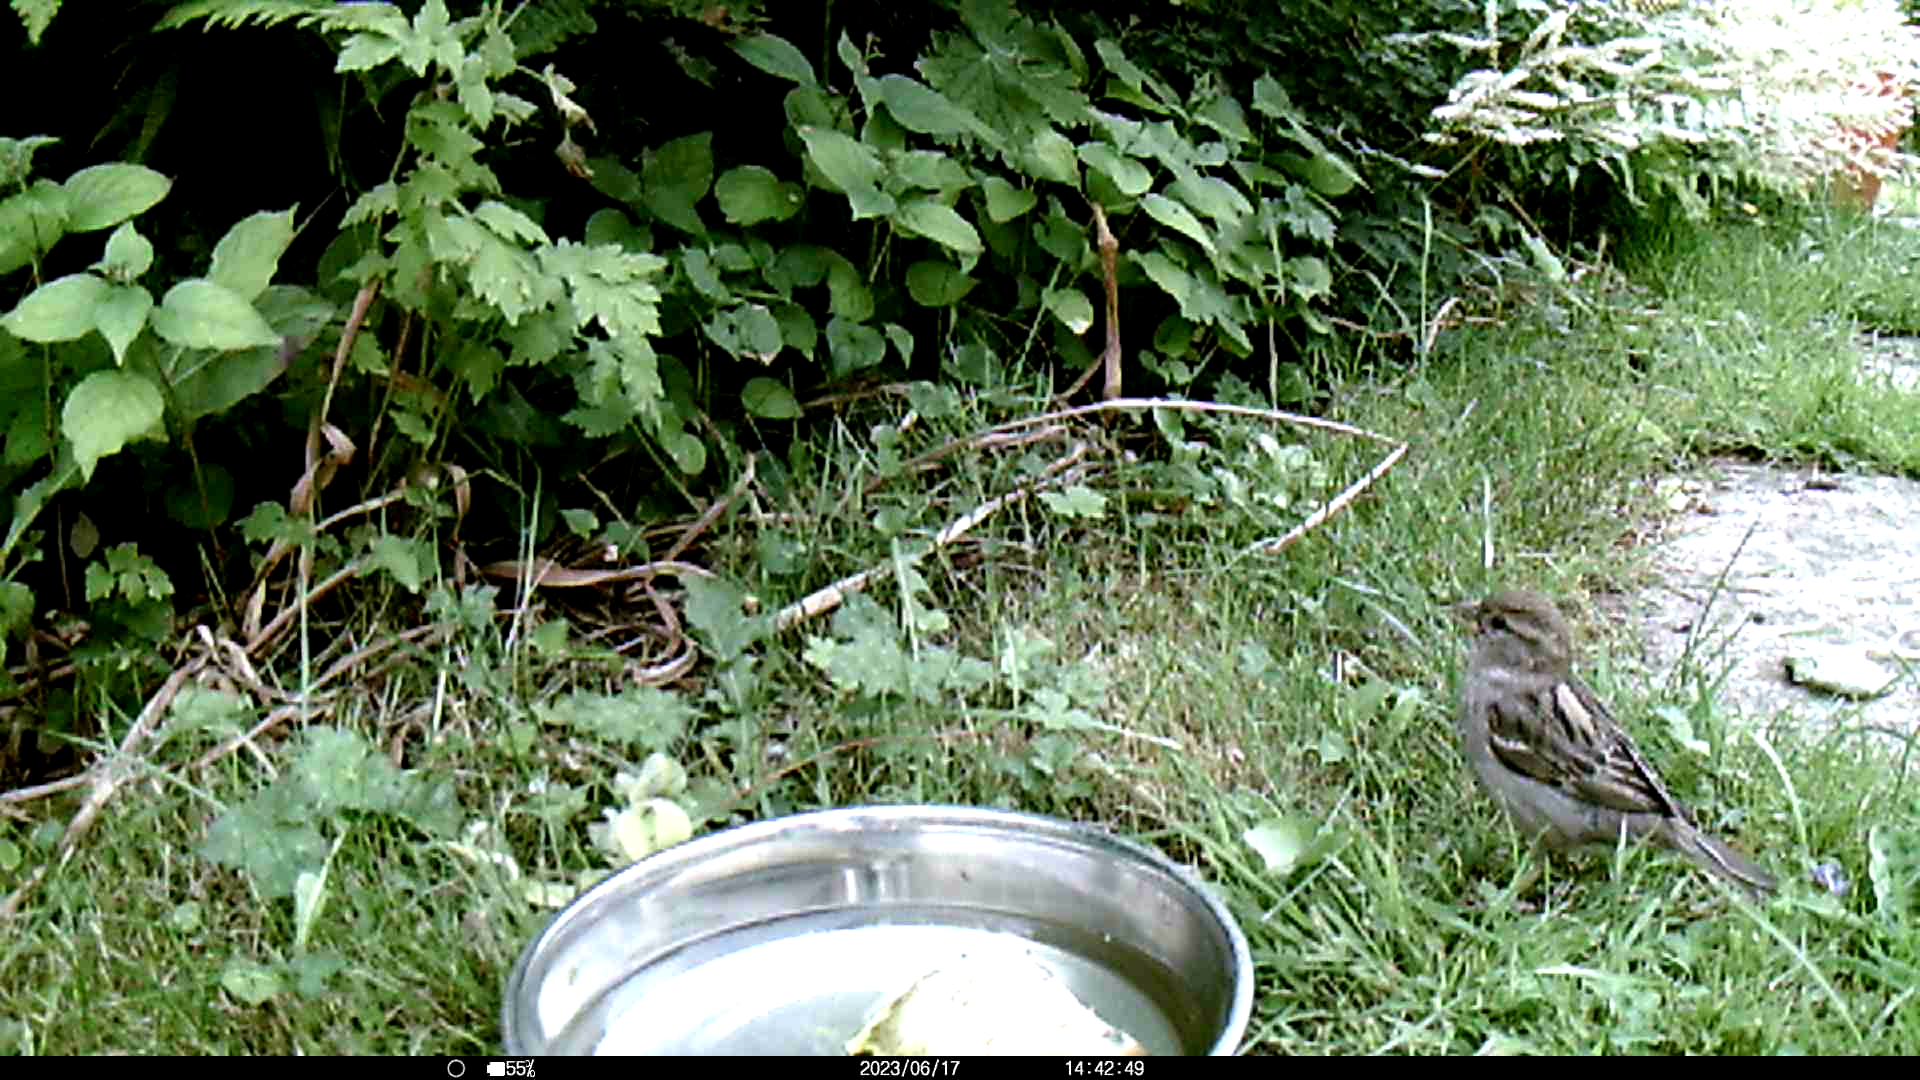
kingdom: Animalia
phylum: Chordata
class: Aves
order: Passeriformes
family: Passeridae
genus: Passer
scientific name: Passer domesticus
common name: House sparrow
